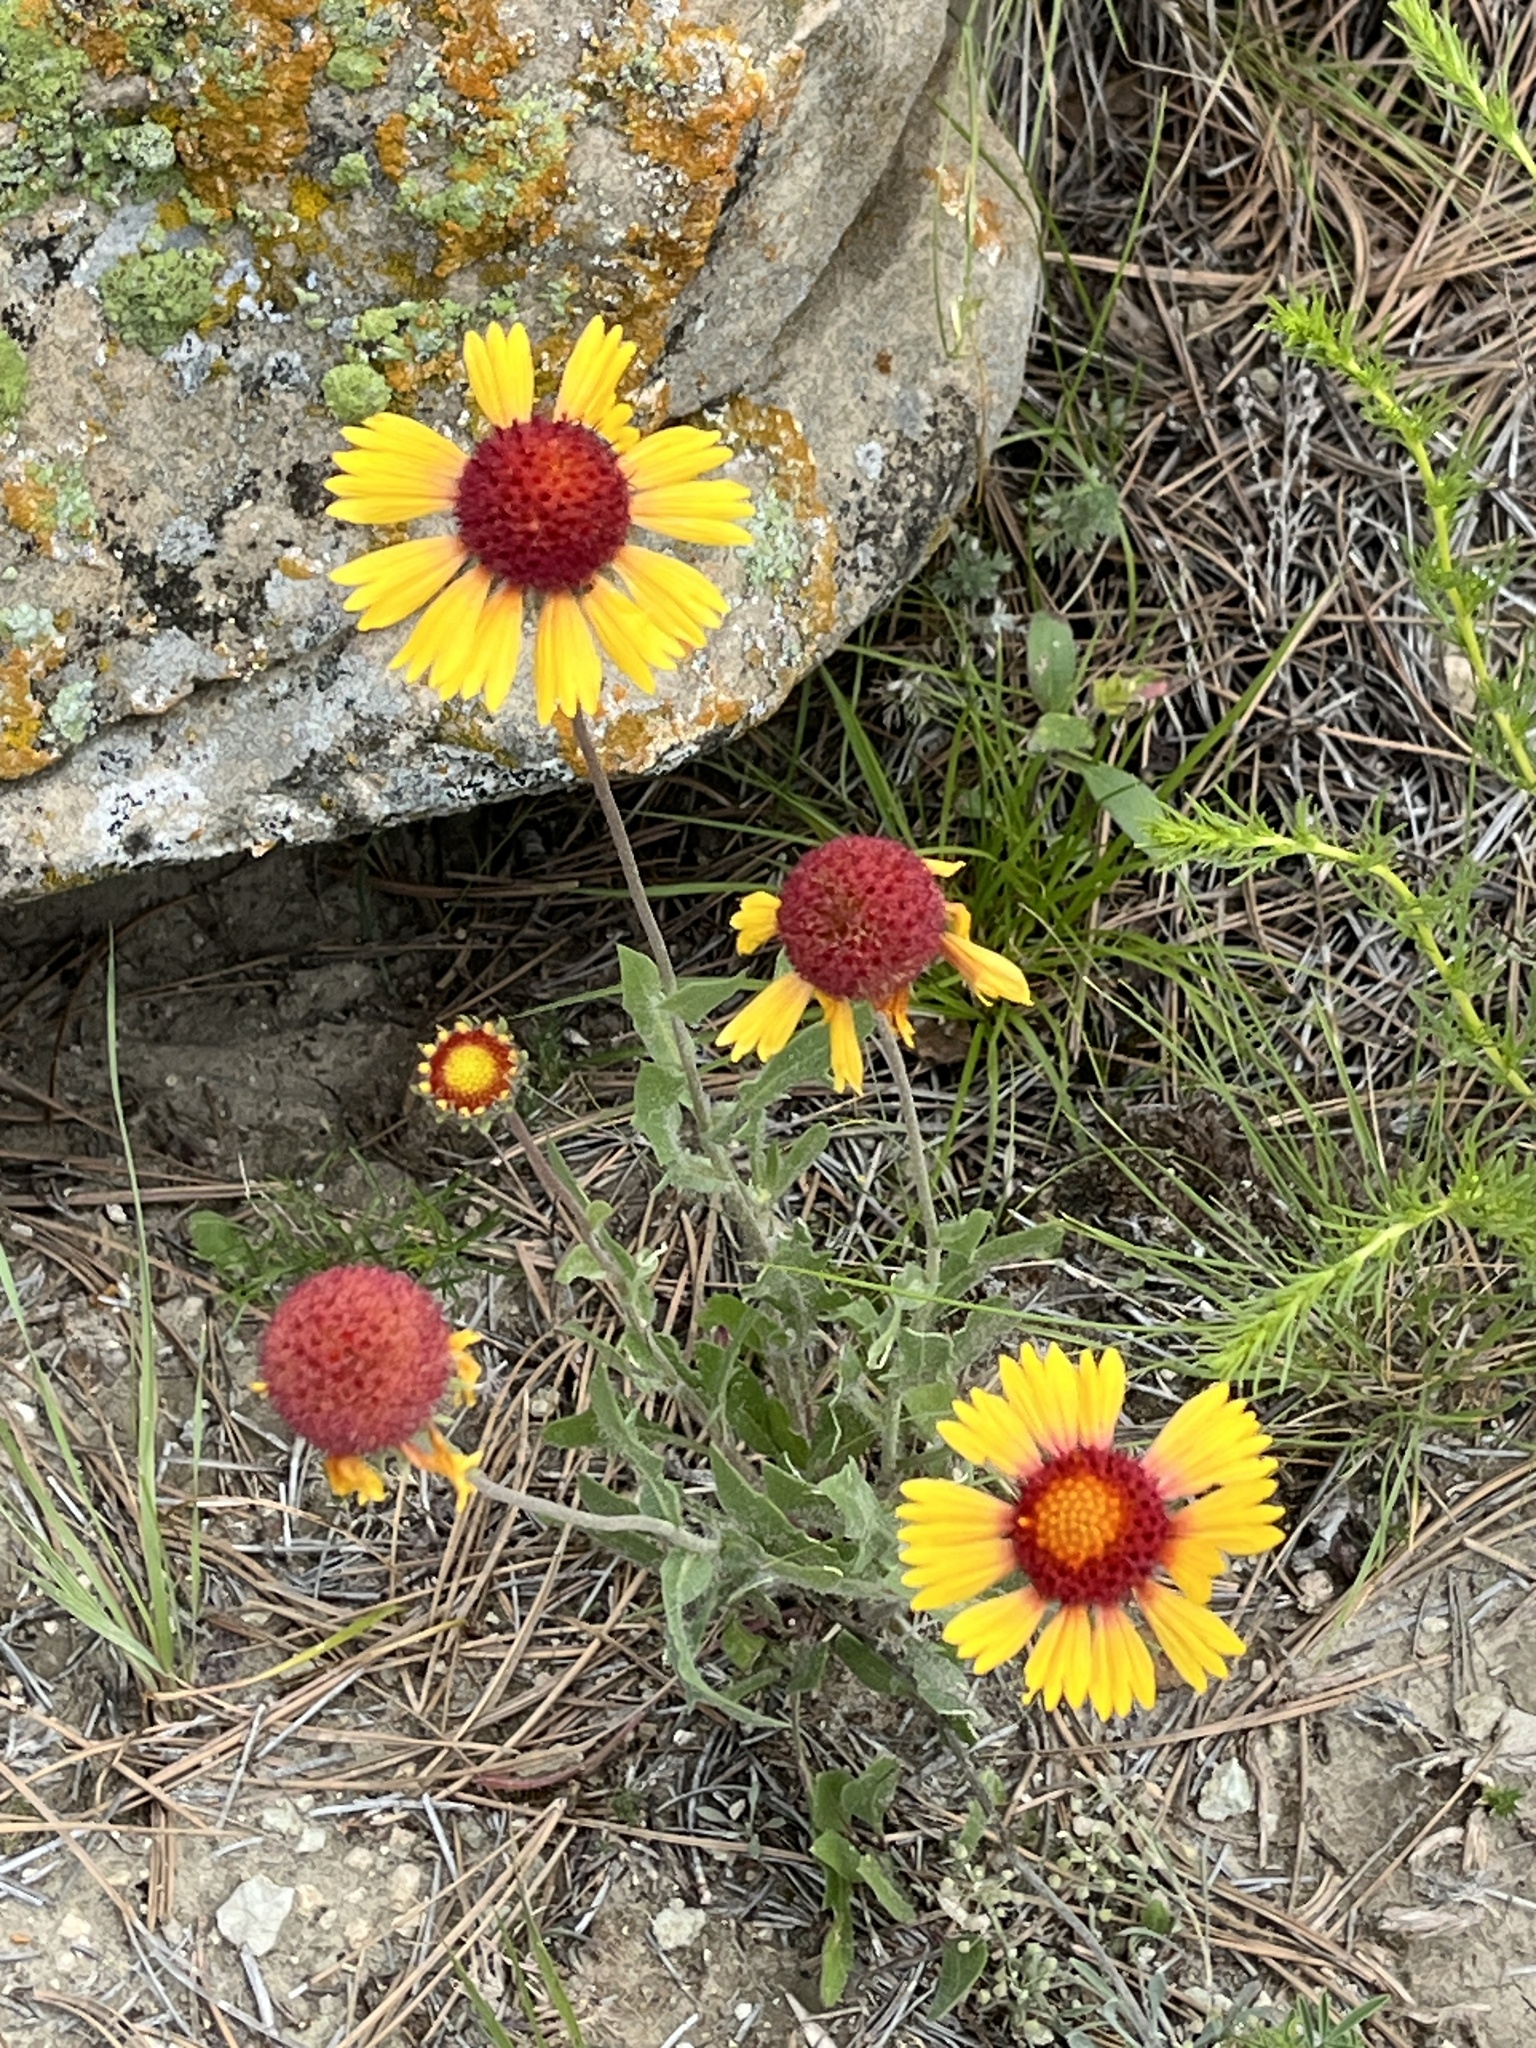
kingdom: Plantae
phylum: Tracheophyta
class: Magnoliopsida
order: Asterales
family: Asteraceae
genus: Gaillardia
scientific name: Gaillardia aristata
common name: Blanket-flower
